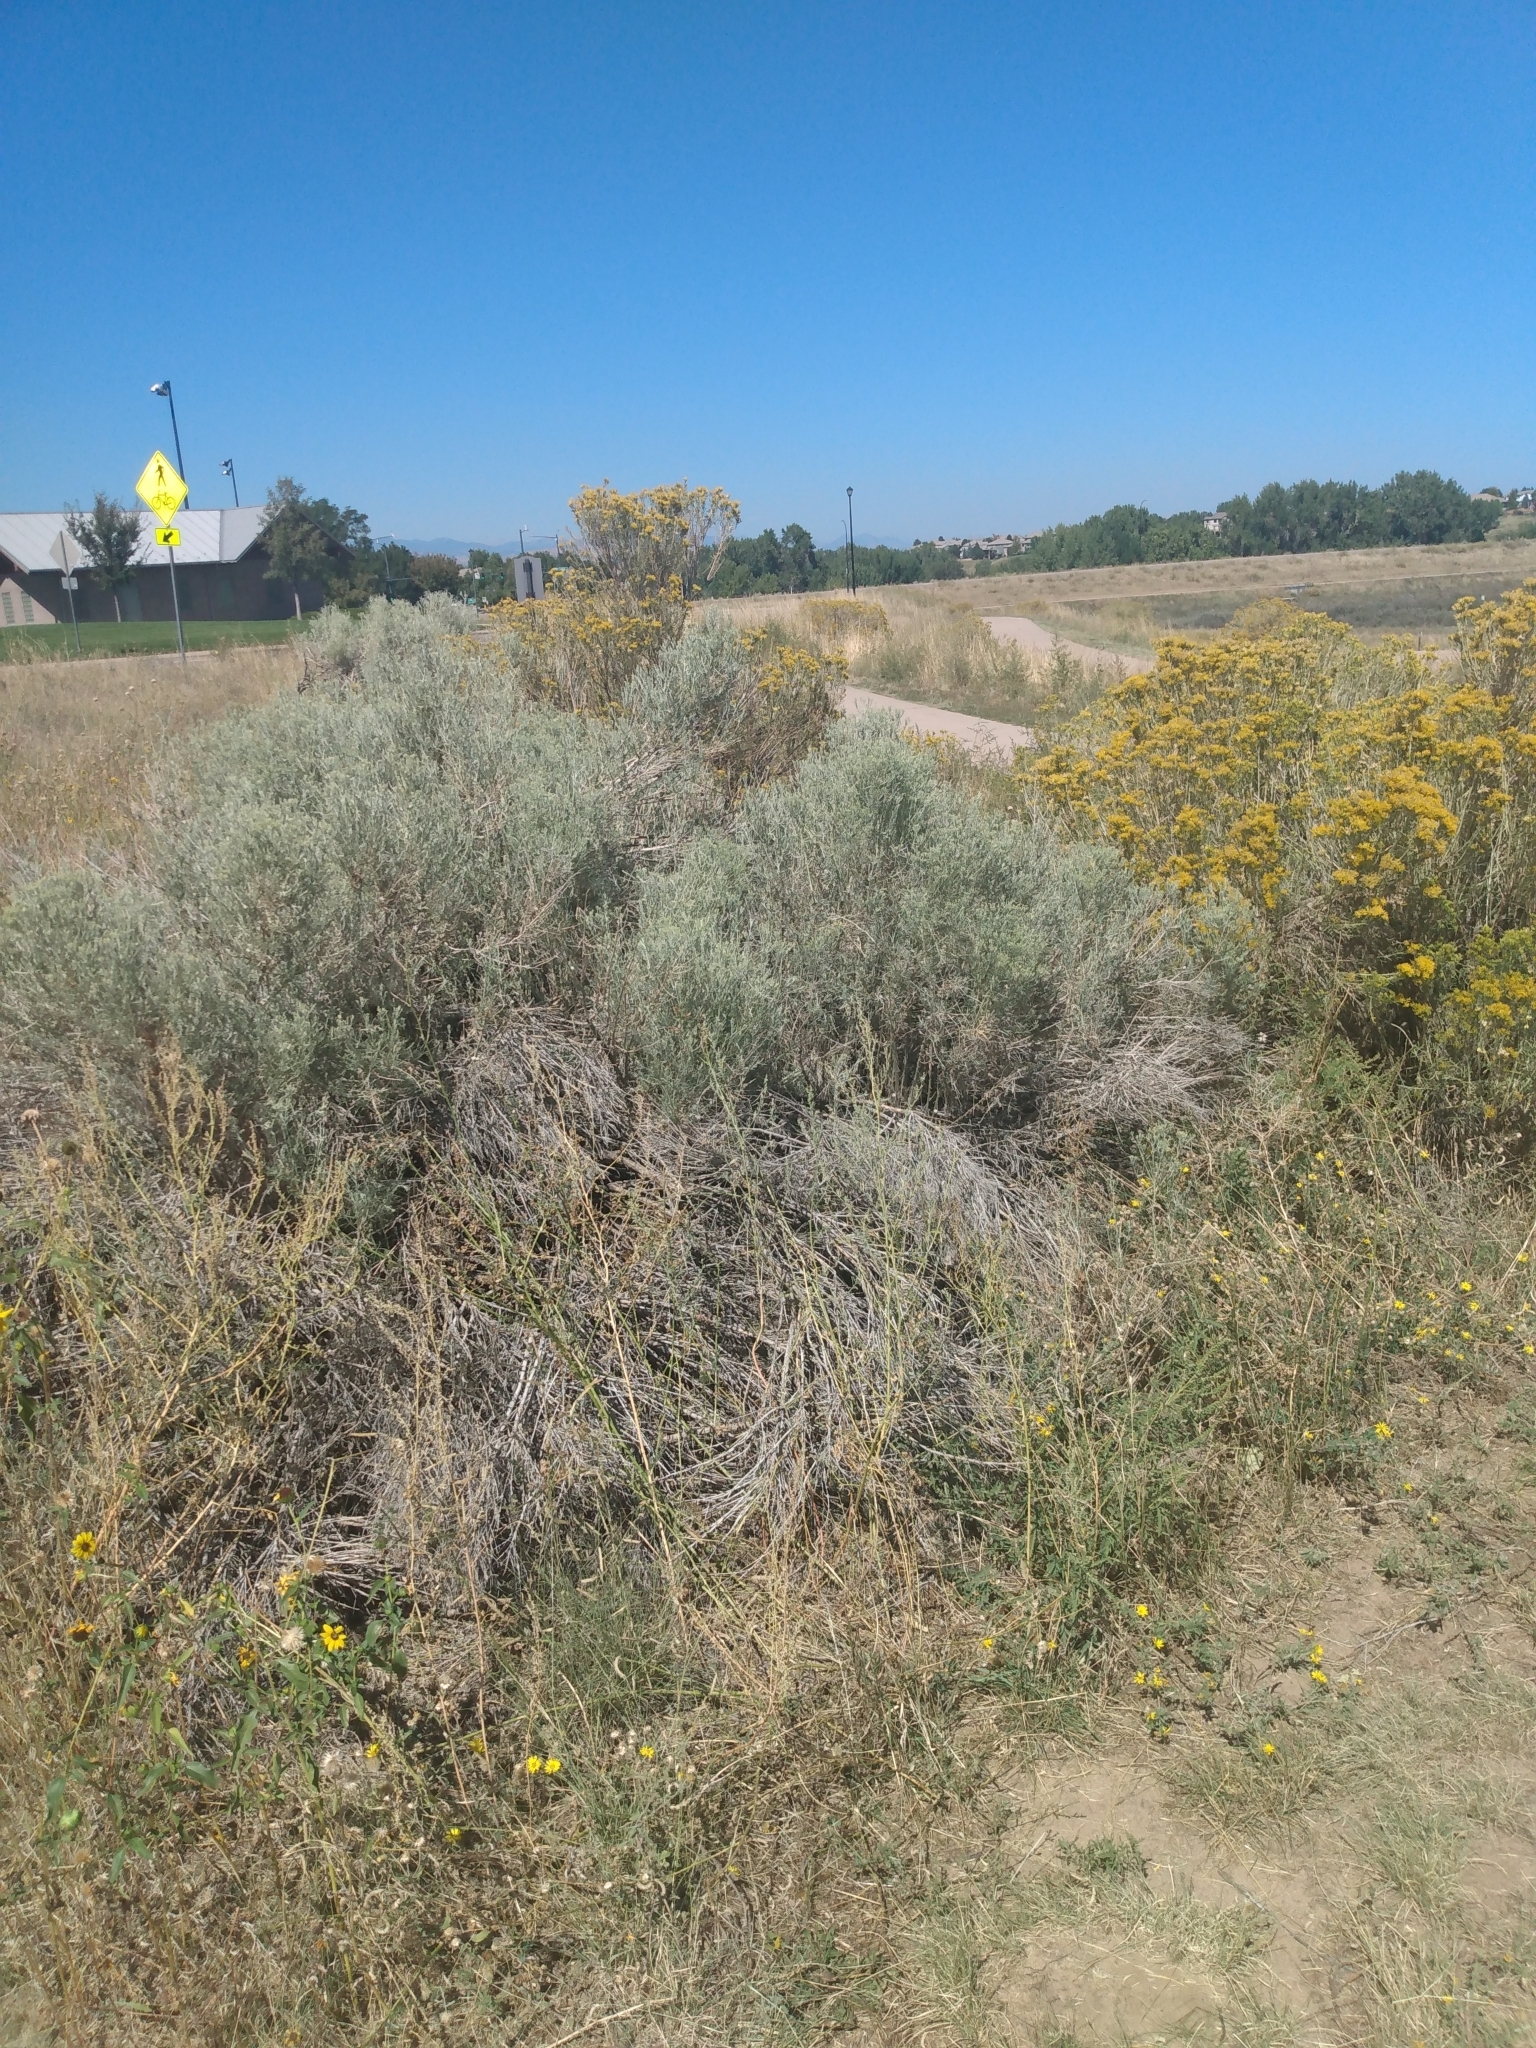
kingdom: Plantae
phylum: Tracheophyta
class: Magnoliopsida
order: Asterales
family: Asteraceae
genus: Ericameria
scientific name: Ericameria nauseosa
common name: Rubber rabbitbrush
